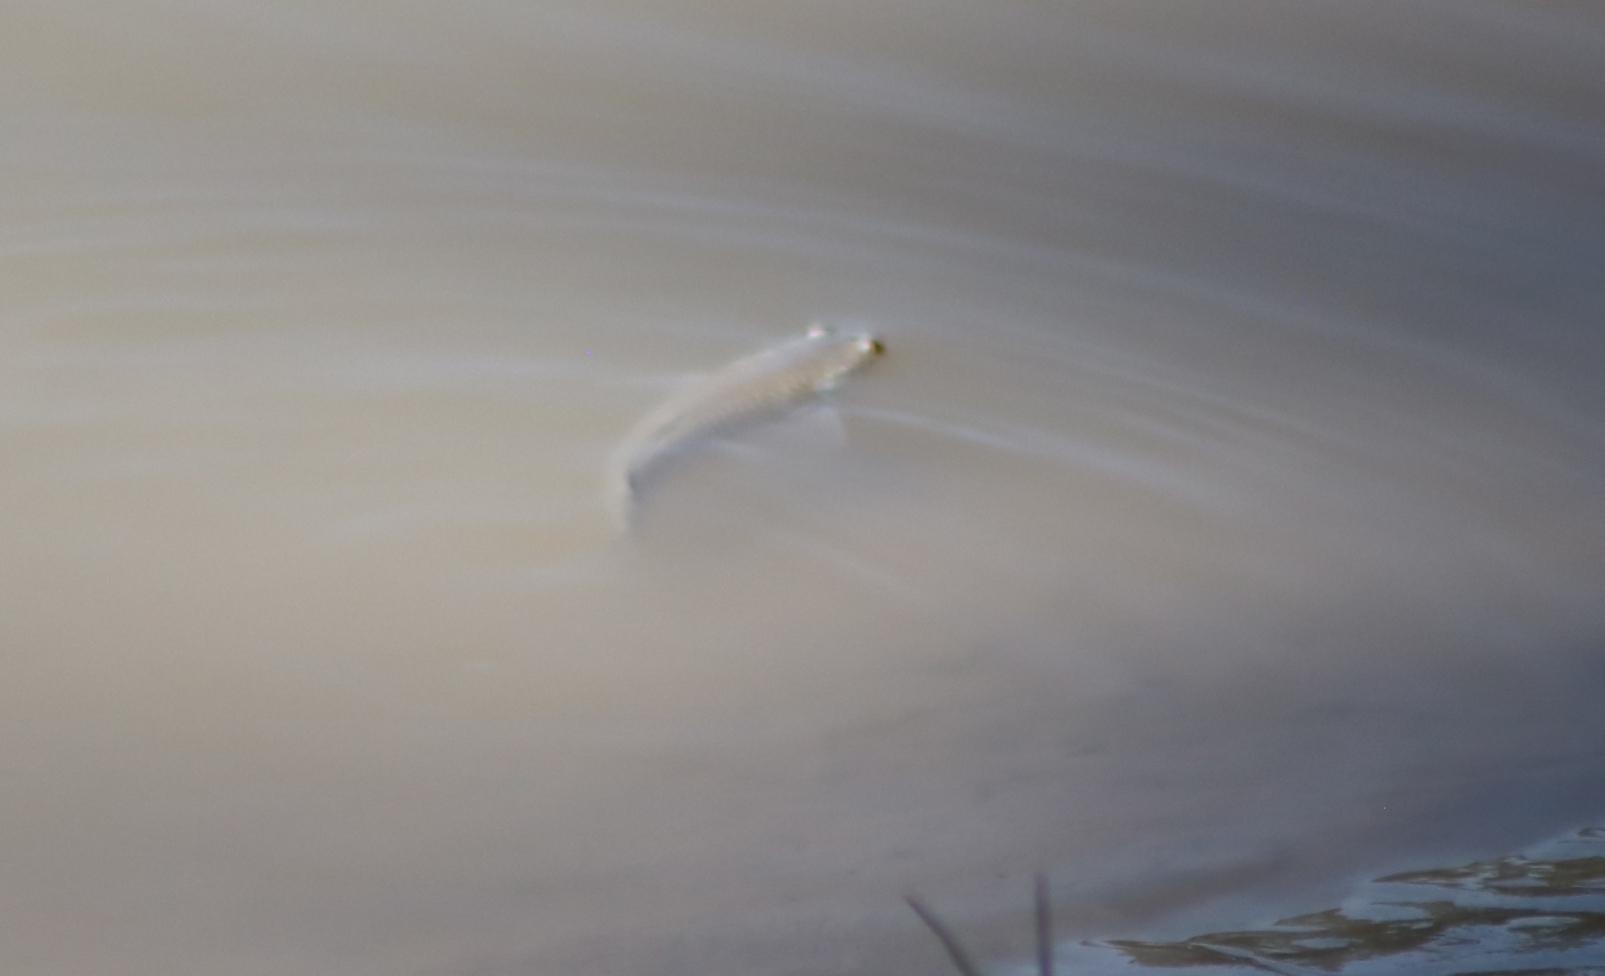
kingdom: Animalia
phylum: Chordata
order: Mugiliformes
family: Mugilidae
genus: Squalomugil
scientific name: Squalomugil nasutus
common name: Mud mullet
